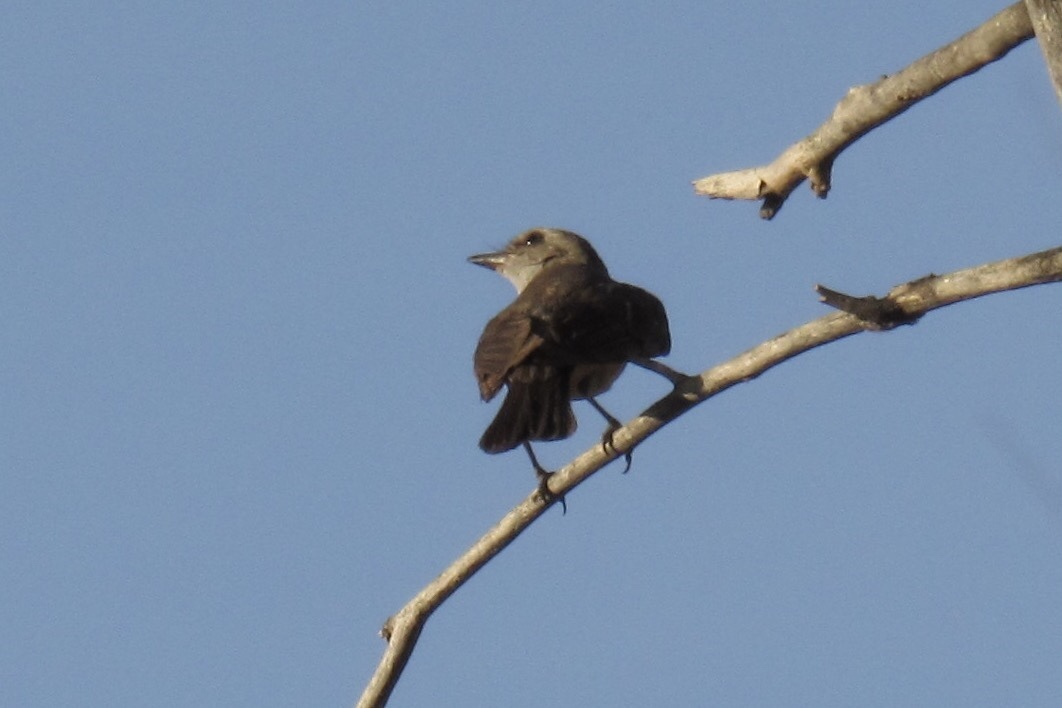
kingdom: Animalia
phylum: Chordata
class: Aves
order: Passeriformes
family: Tyrannidae
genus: Pyrocephalus
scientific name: Pyrocephalus rubinus
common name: Vermilion flycatcher
